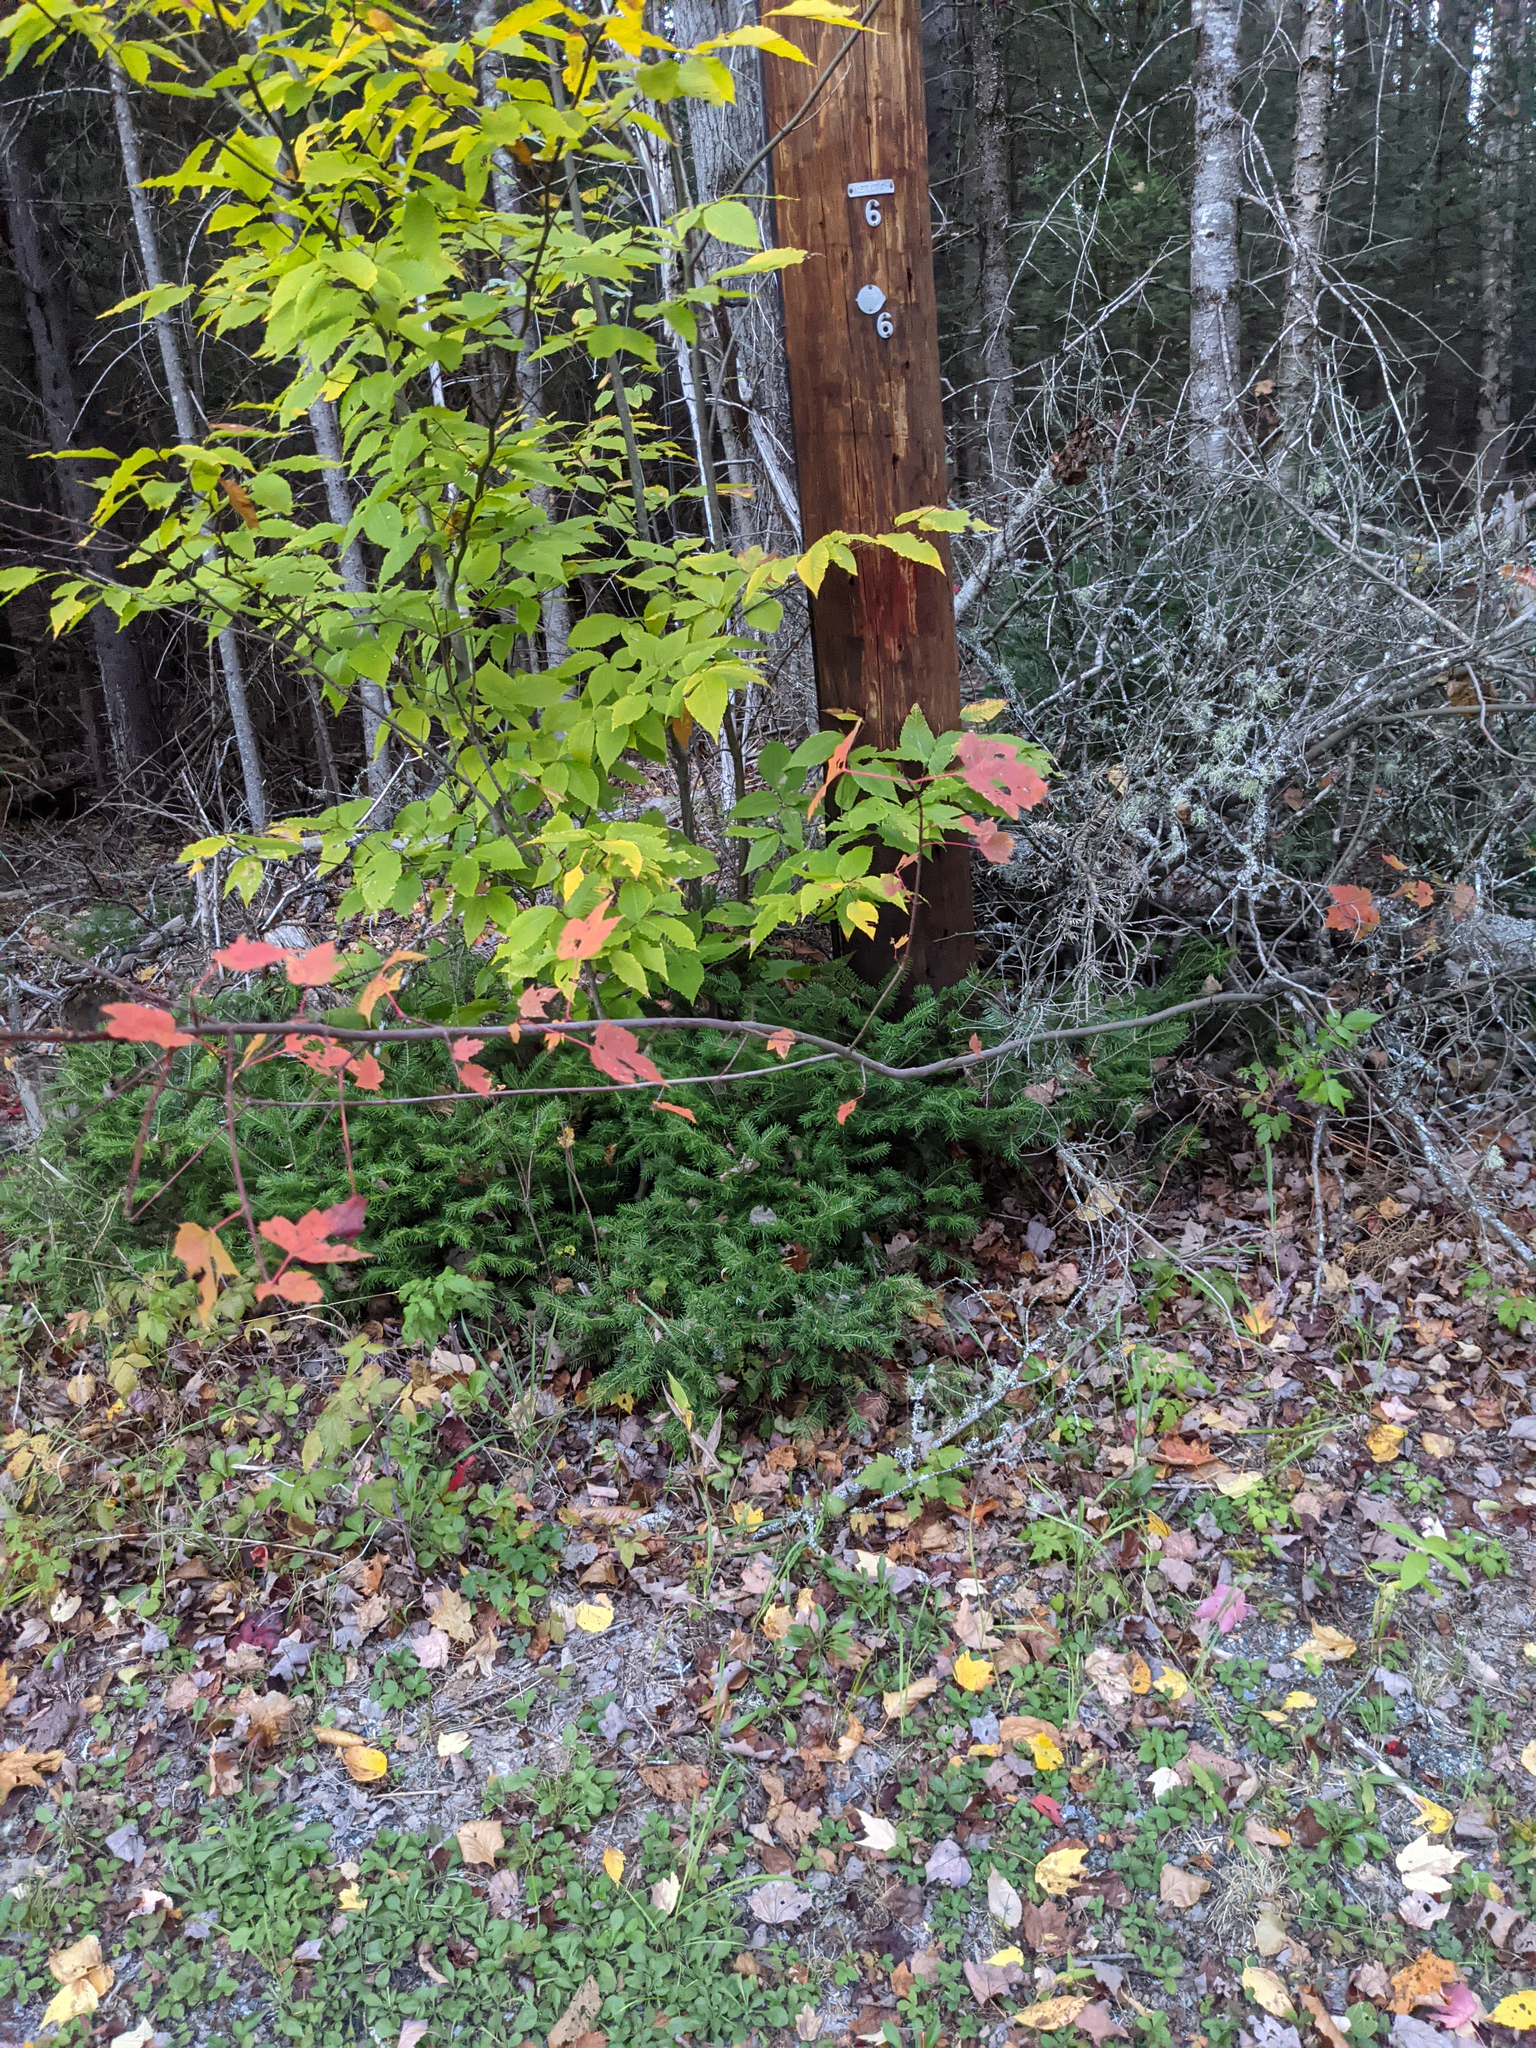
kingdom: Plantae
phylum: Tracheophyta
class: Magnoliopsida
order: Sapindales
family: Sapindaceae
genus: Acer
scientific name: Acer rubrum
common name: Red maple
